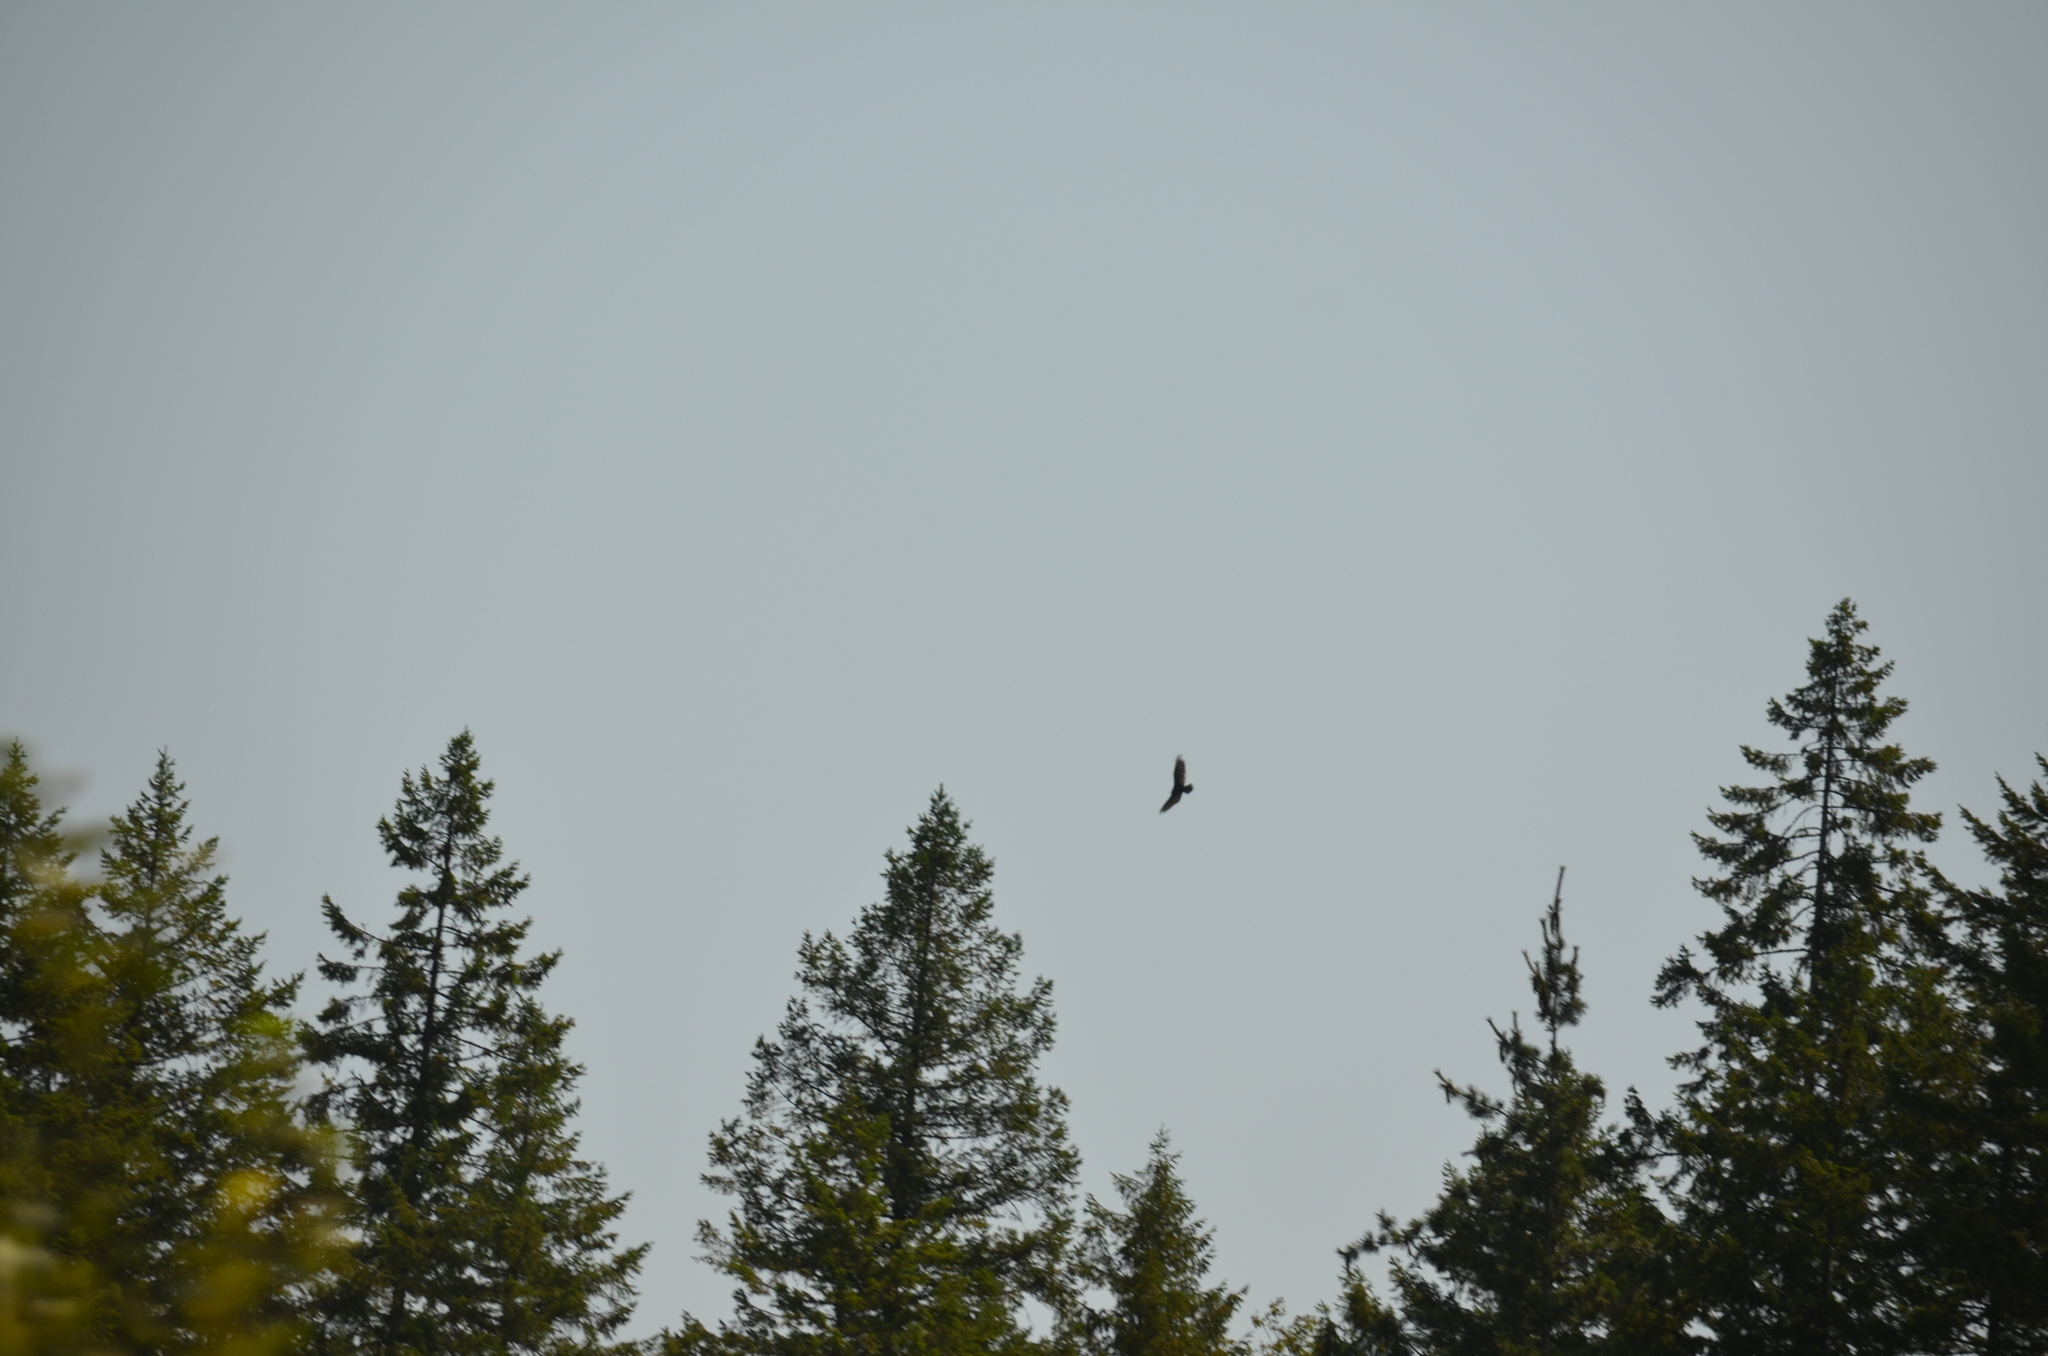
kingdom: Animalia
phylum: Chordata
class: Aves
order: Accipitriformes
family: Cathartidae
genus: Cathartes
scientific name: Cathartes aura
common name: Turkey vulture
